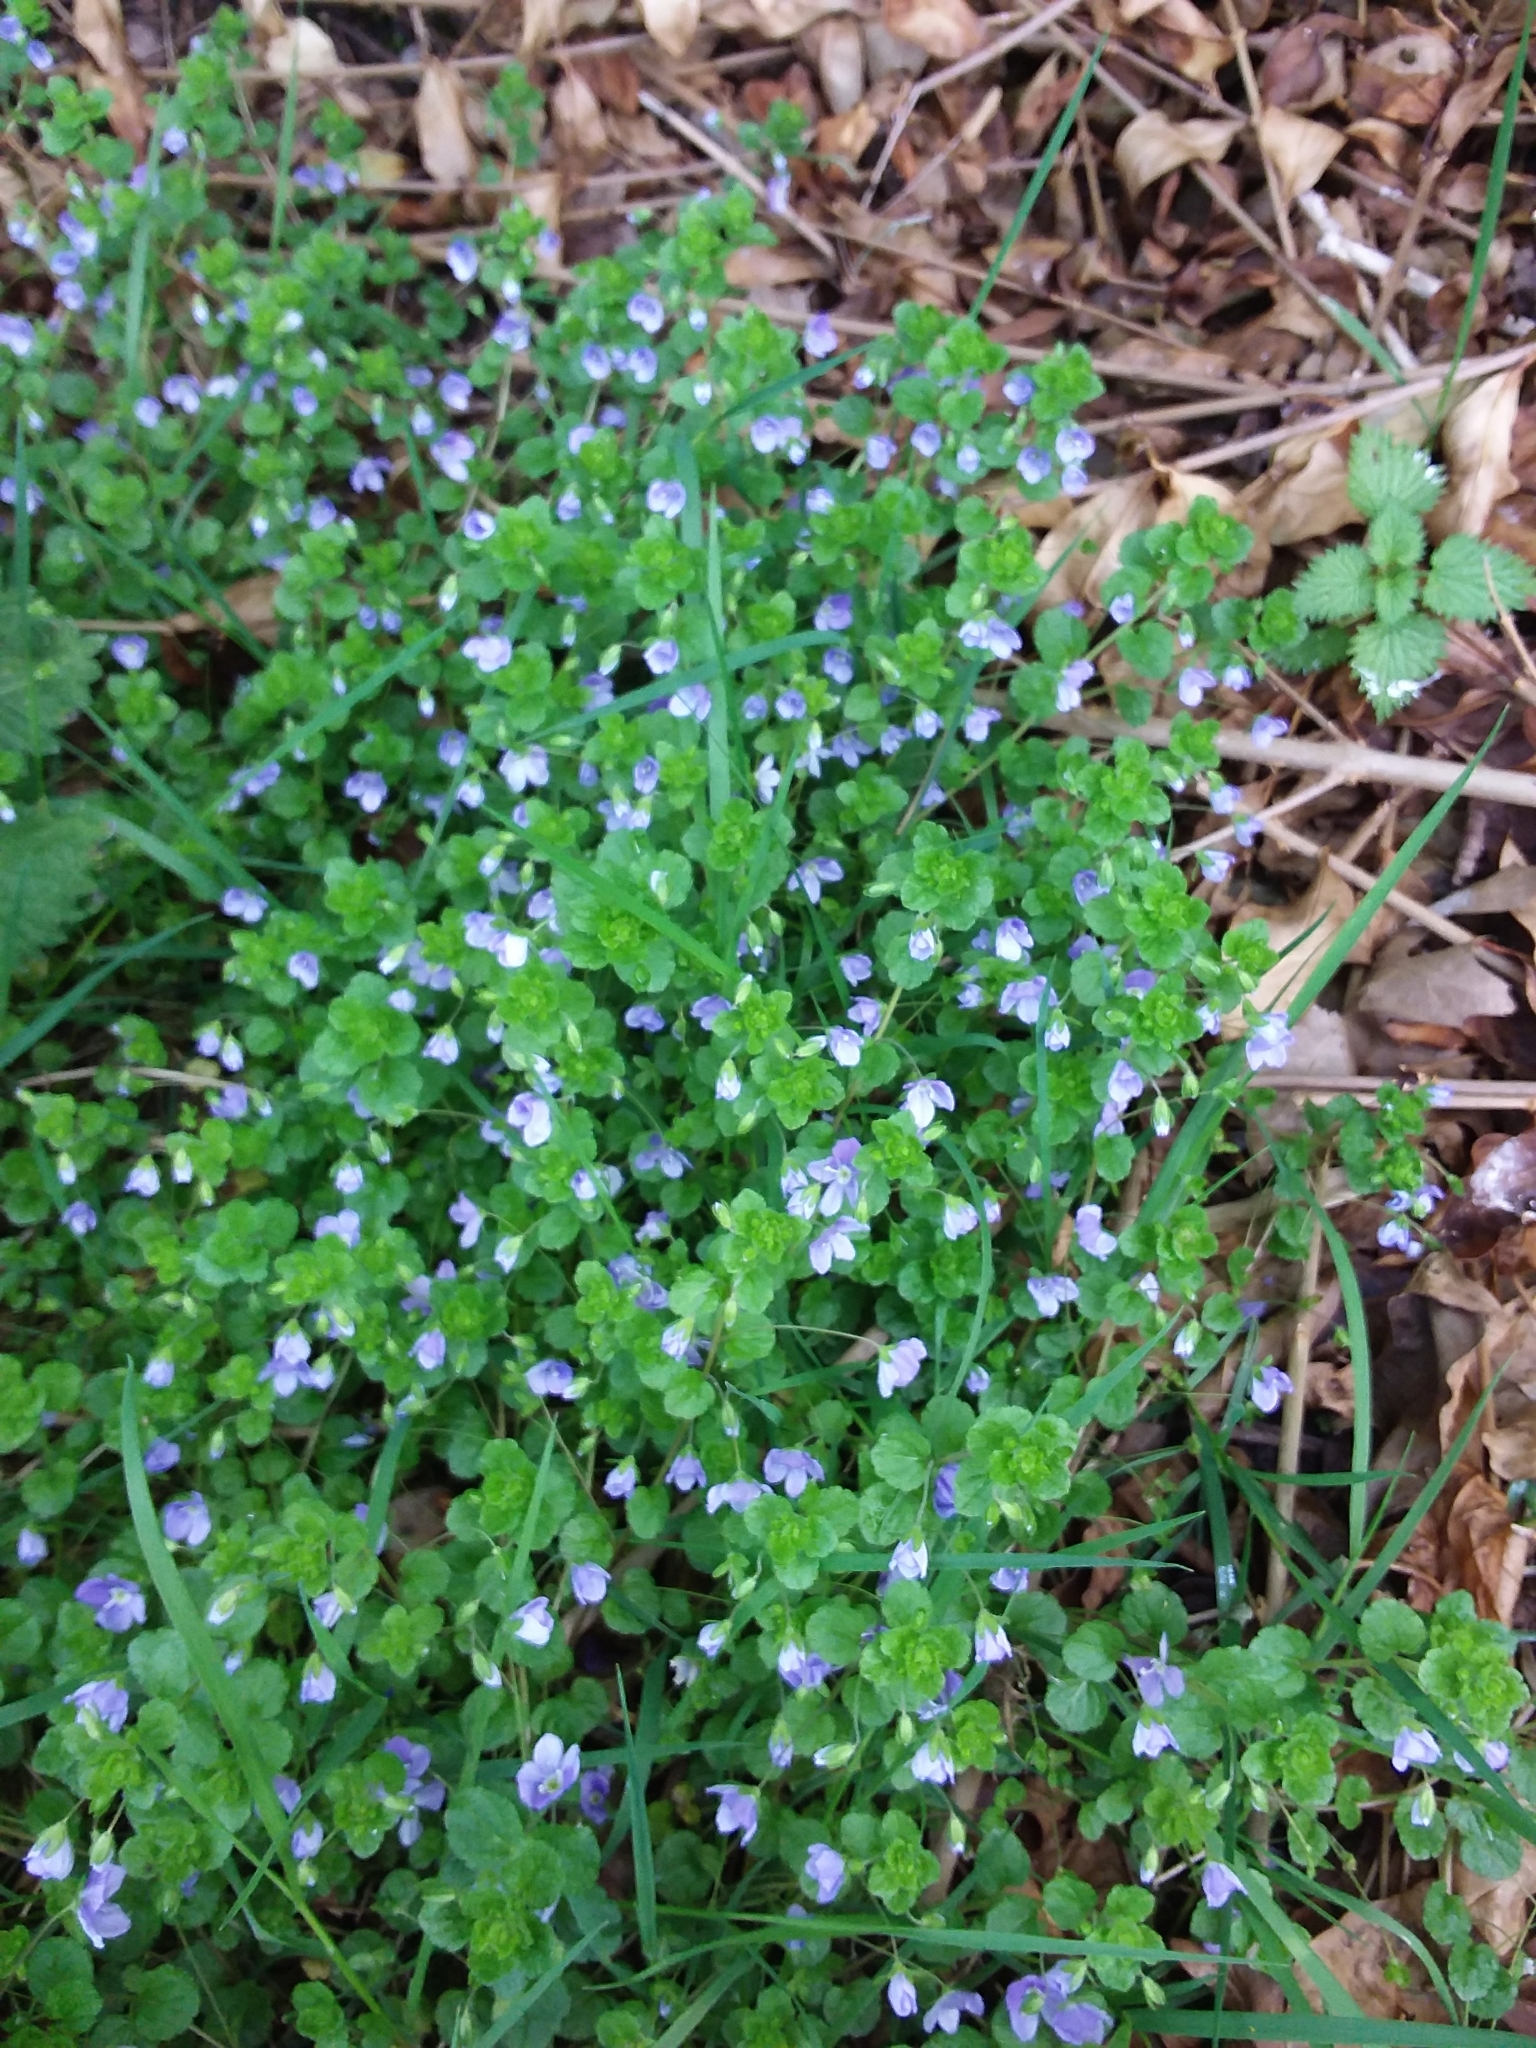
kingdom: Plantae
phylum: Tracheophyta
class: Magnoliopsida
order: Lamiales
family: Plantaginaceae
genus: Veronica
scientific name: Veronica filiformis
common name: Slender speedwell
